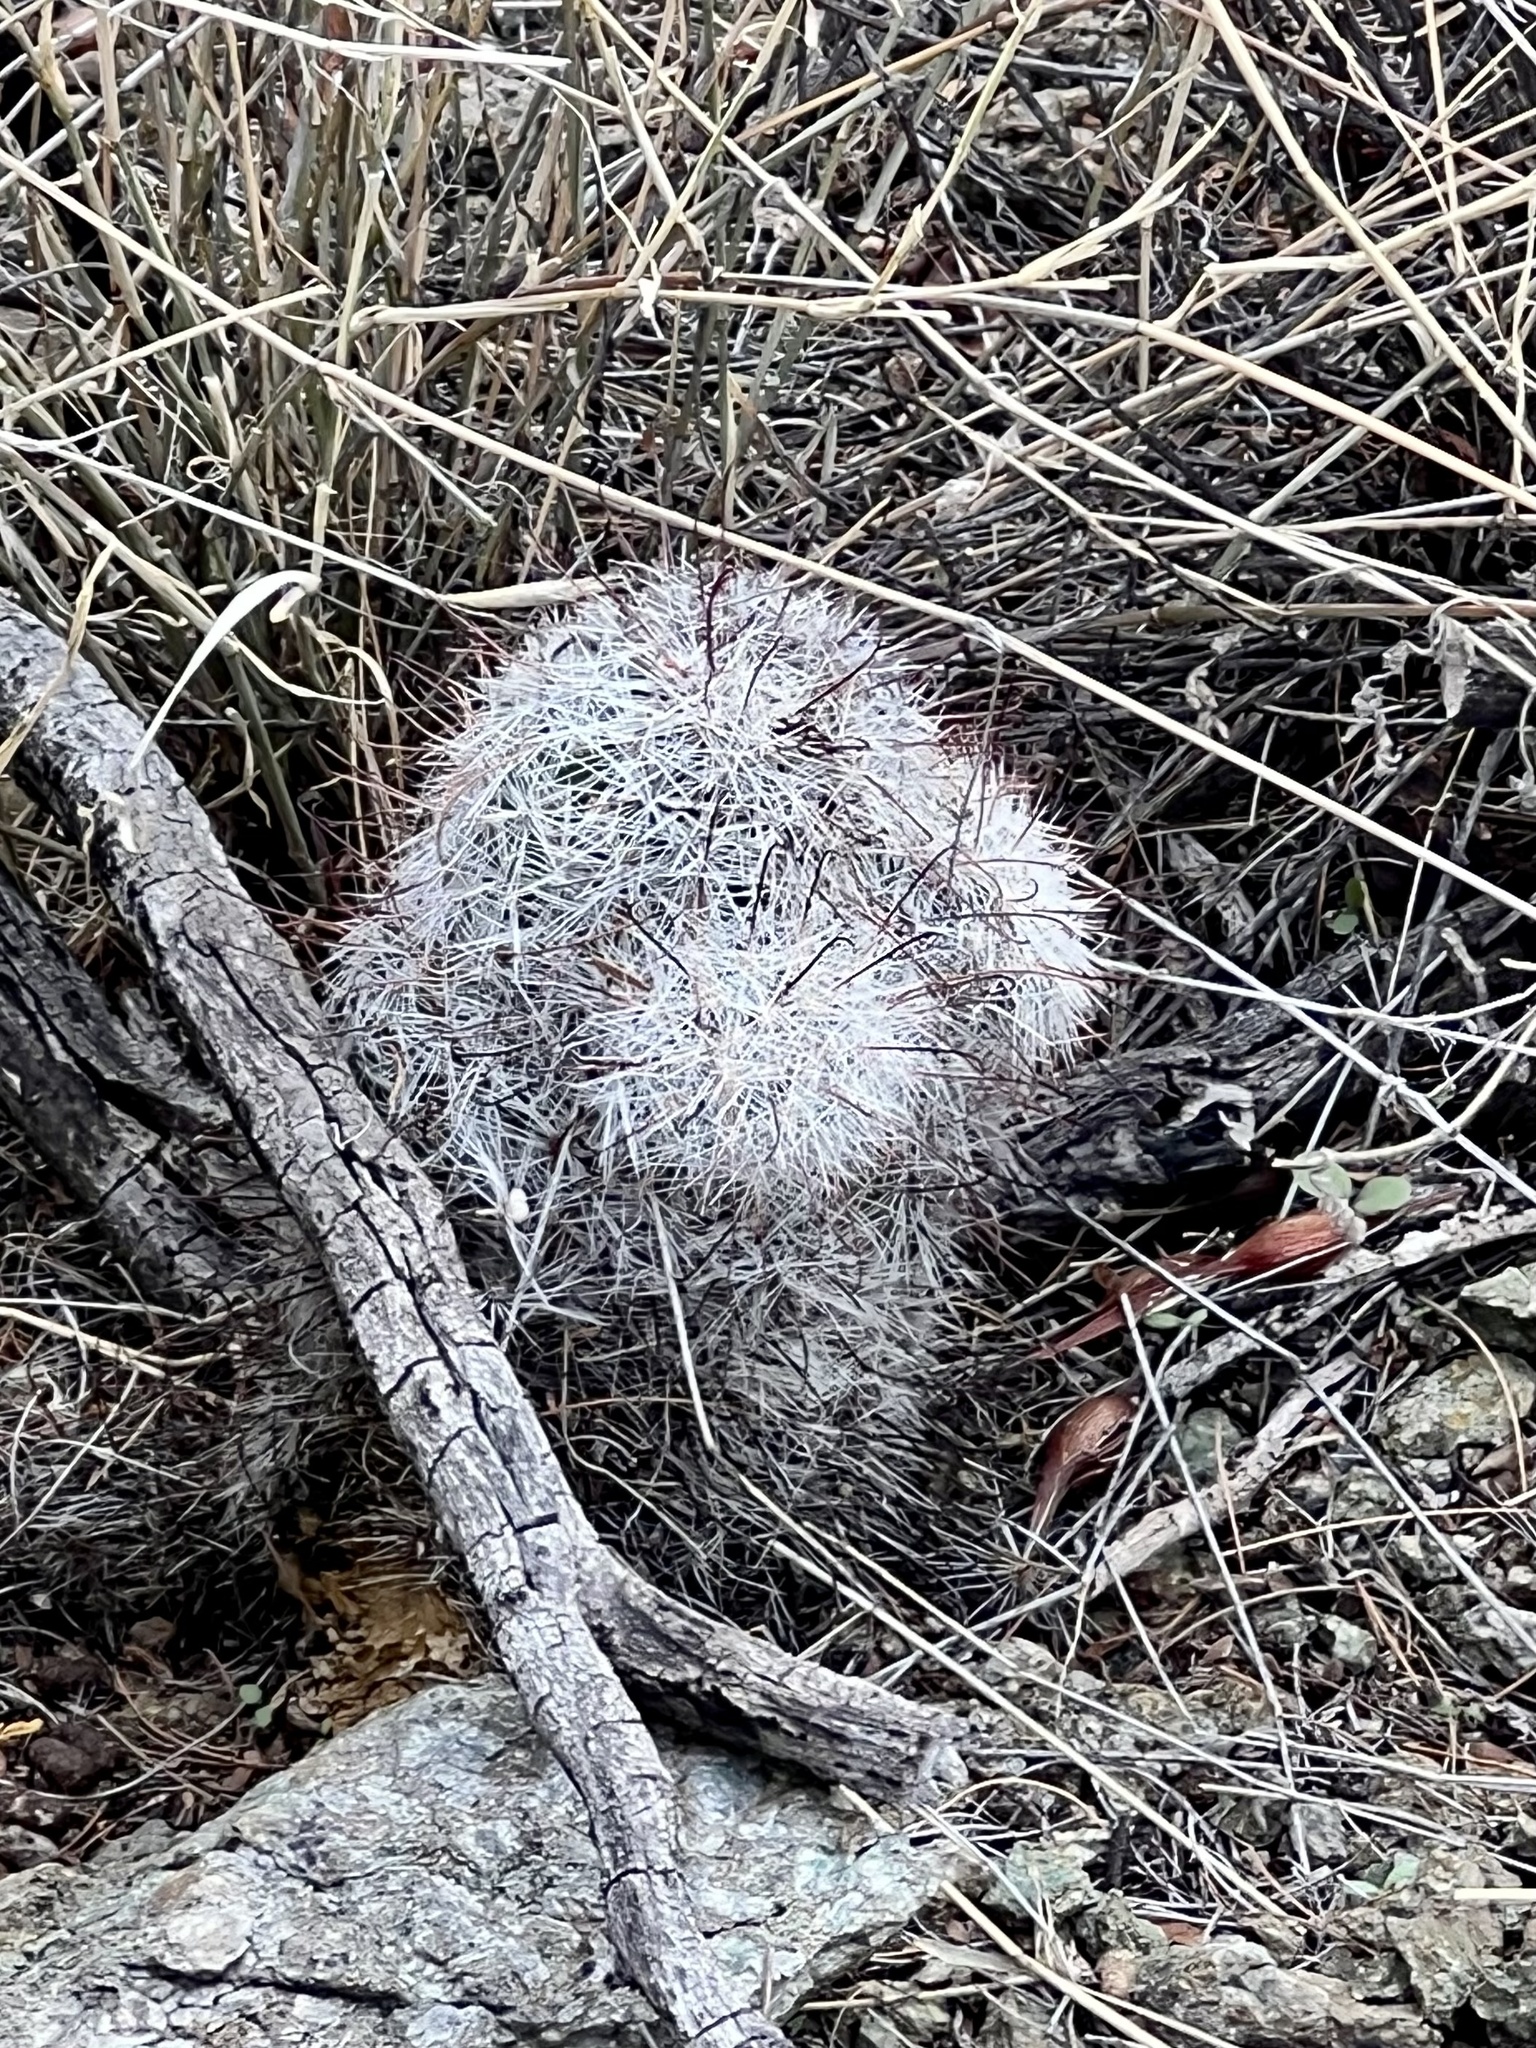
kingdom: Plantae
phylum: Tracheophyta
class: Magnoliopsida
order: Caryophyllales
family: Cactaceae
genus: Cochemiea
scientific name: Cochemiea grahamii
